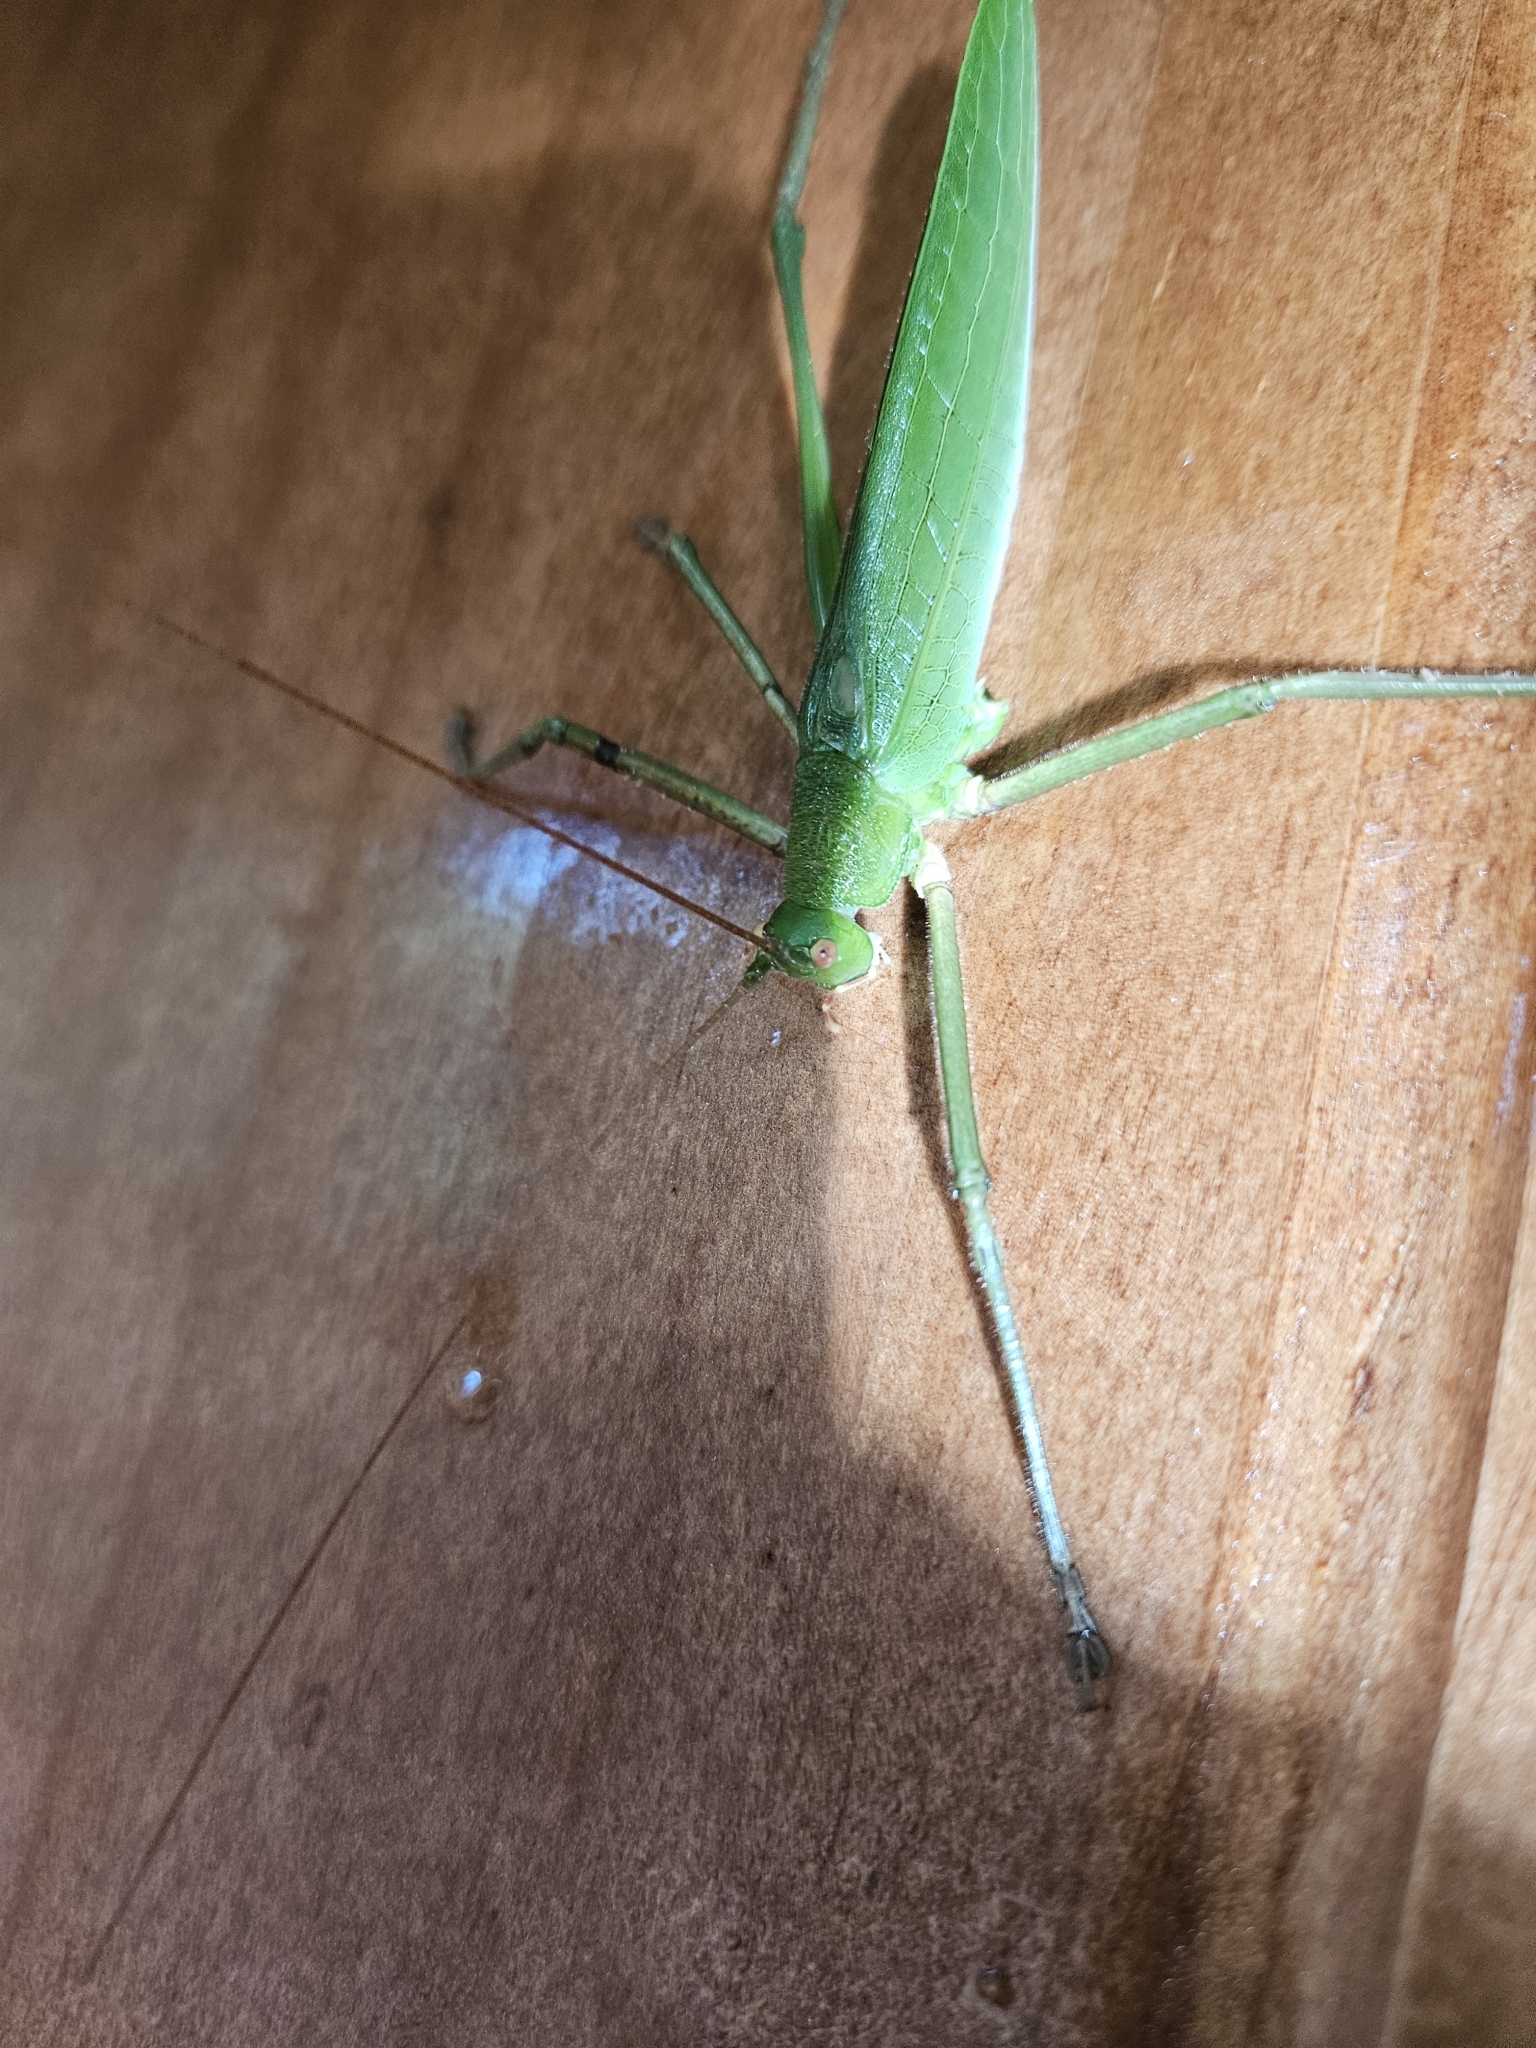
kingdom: Animalia
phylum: Arthropoda
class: Insecta
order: Orthoptera
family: Tettigoniidae
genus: Diyllus
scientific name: Diyllus fasciatus
